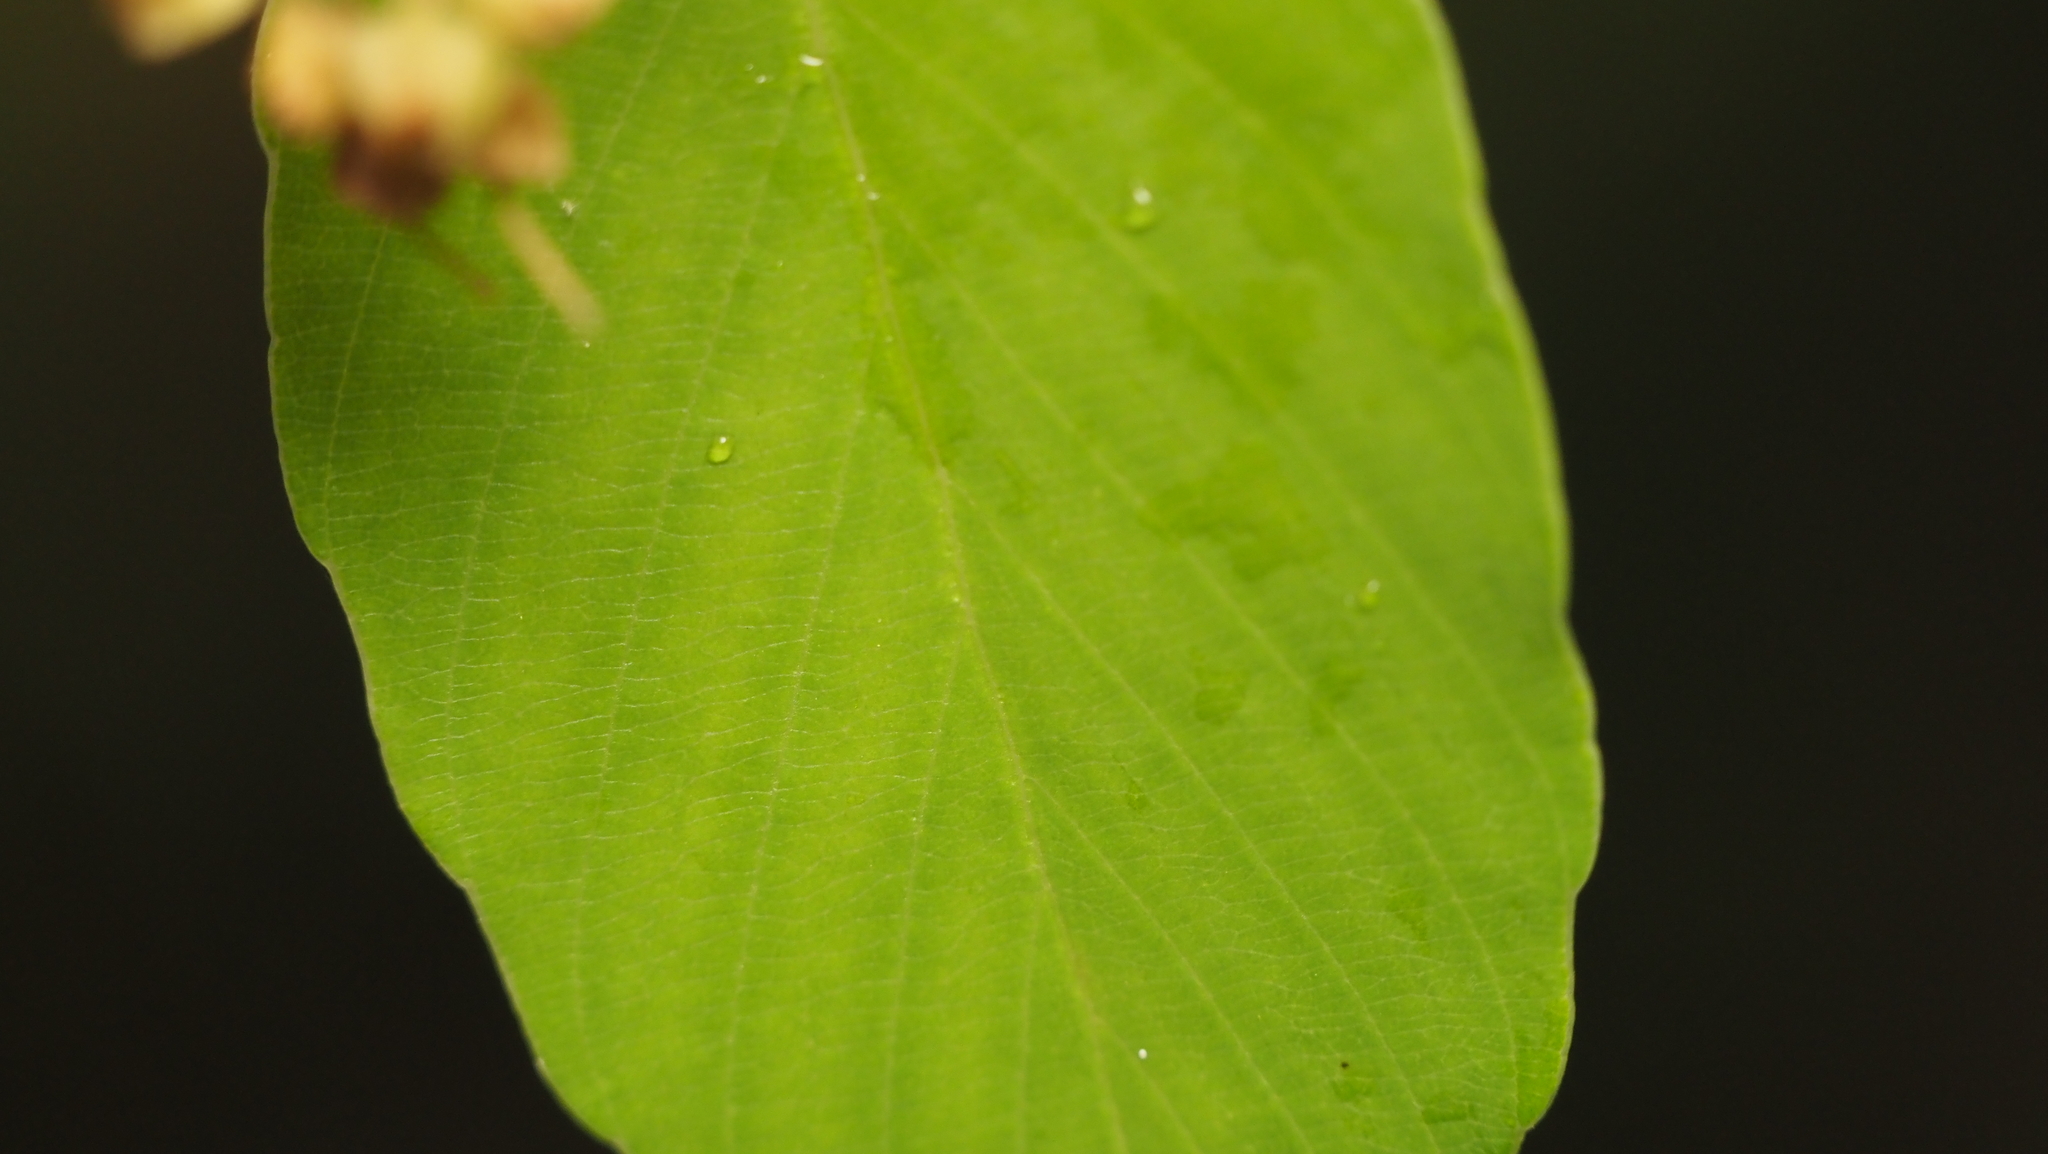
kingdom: Plantae
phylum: Tracheophyta
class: Magnoliopsida
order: Rosales
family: Rhamnaceae
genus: Berchemia
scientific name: Berchemia scandens
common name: Supplejack
